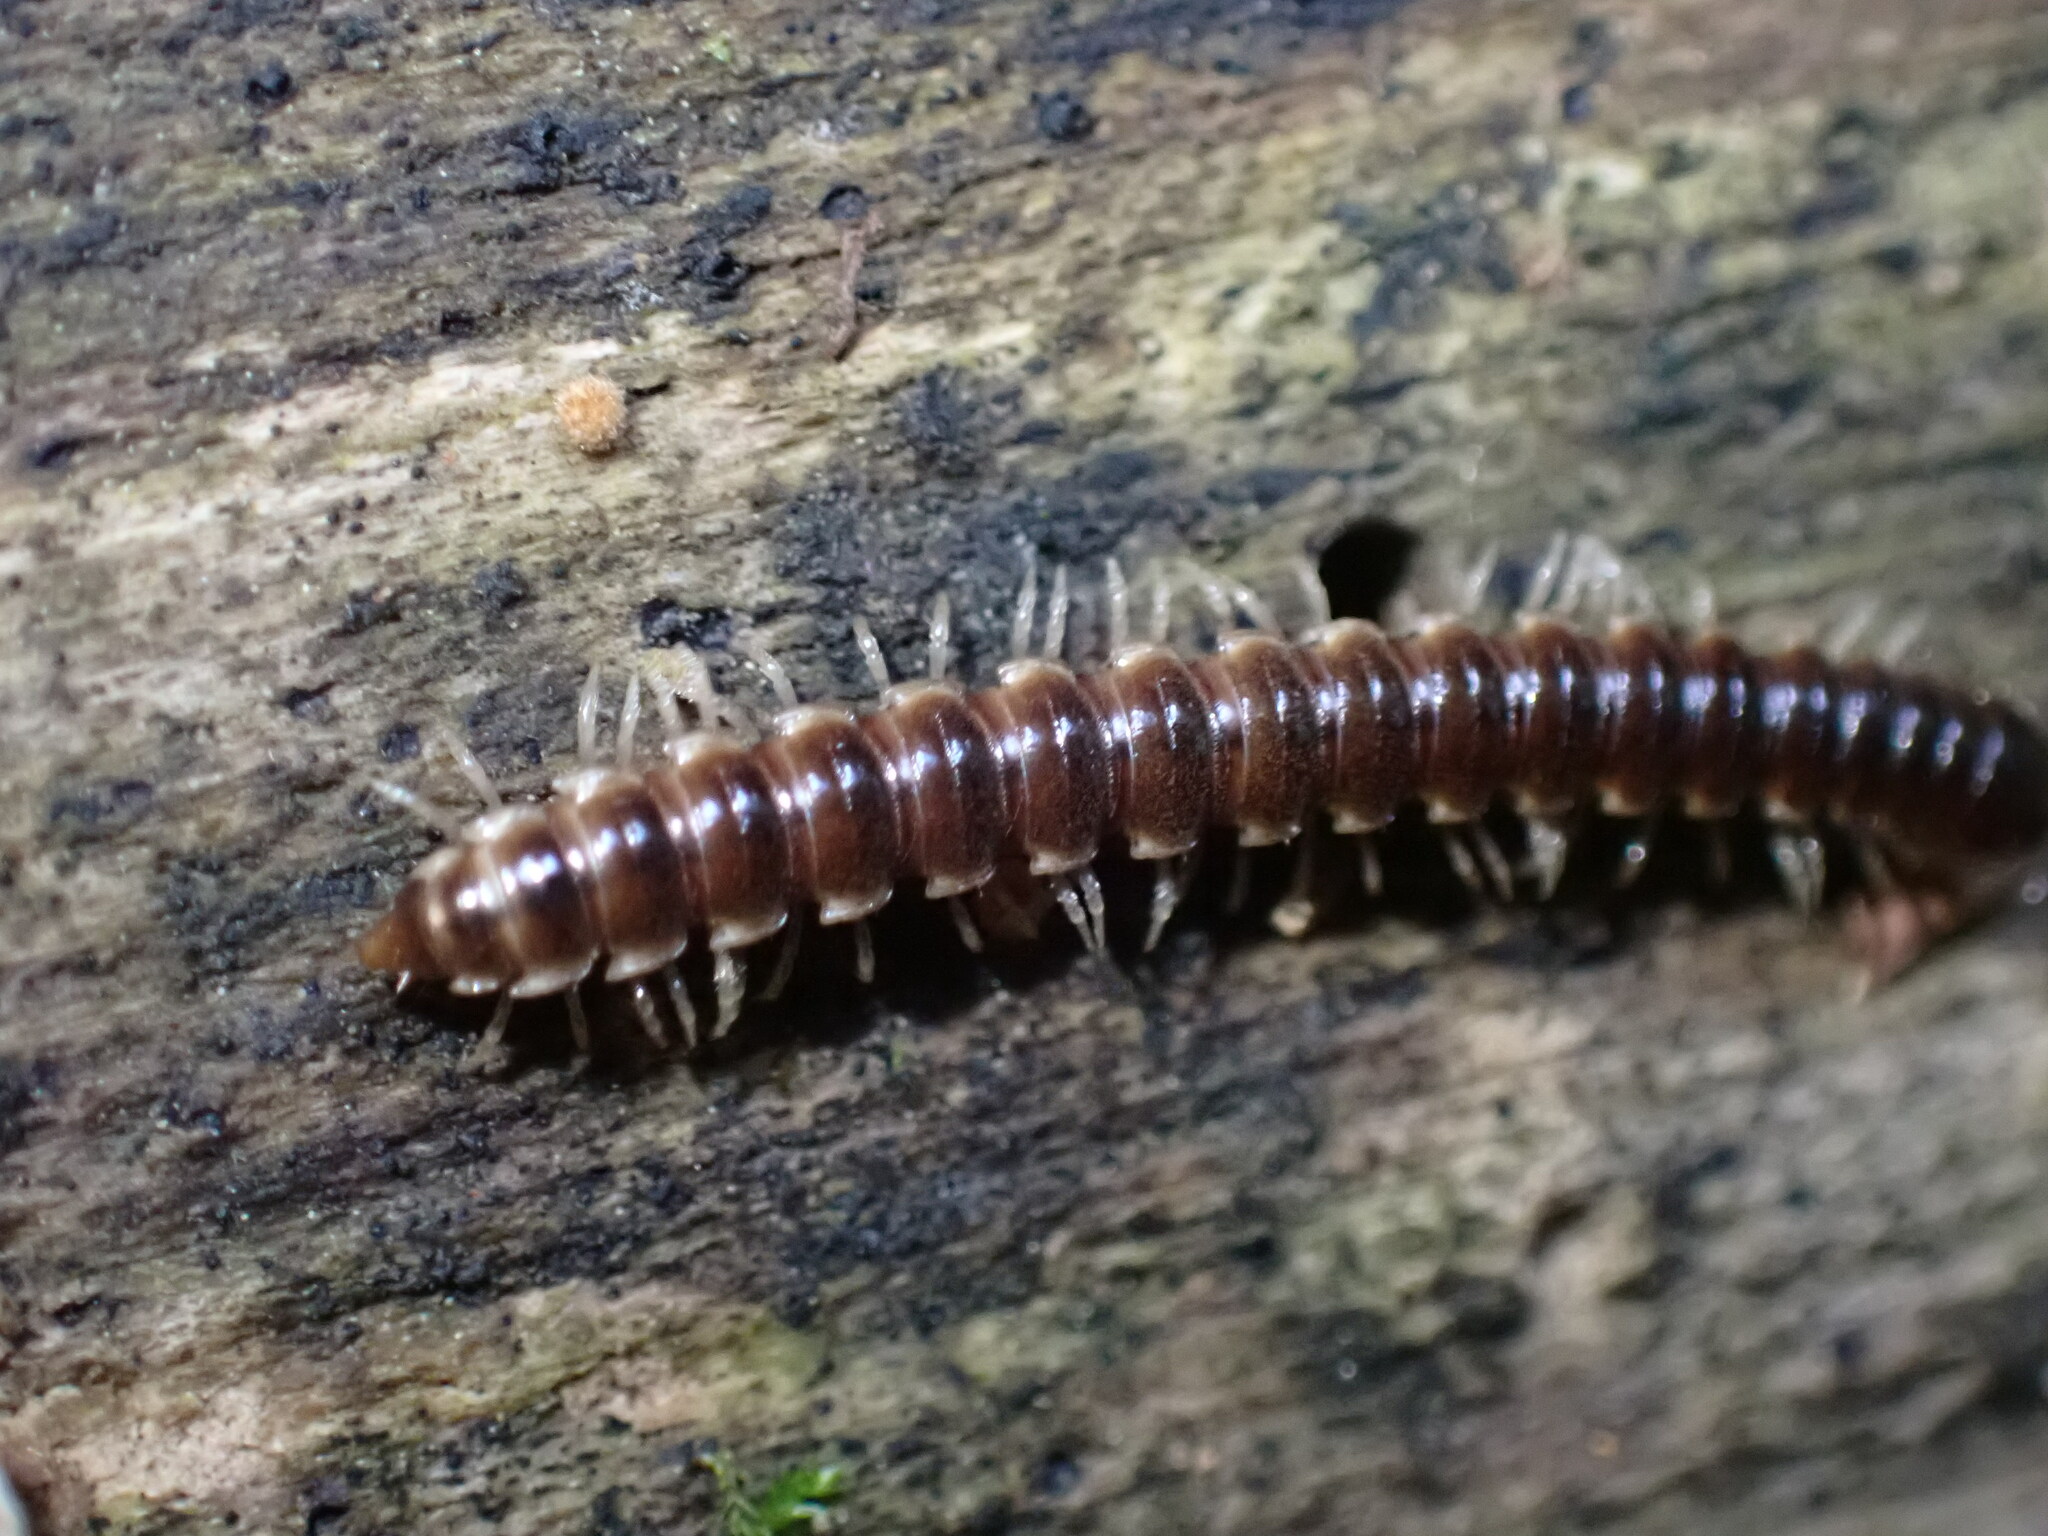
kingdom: Animalia
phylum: Arthropoda
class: Diplopoda
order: Polydesmida
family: Paradoxosomatidae
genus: Oxidus
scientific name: Oxidus gracilis
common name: Greenhouse millipede
